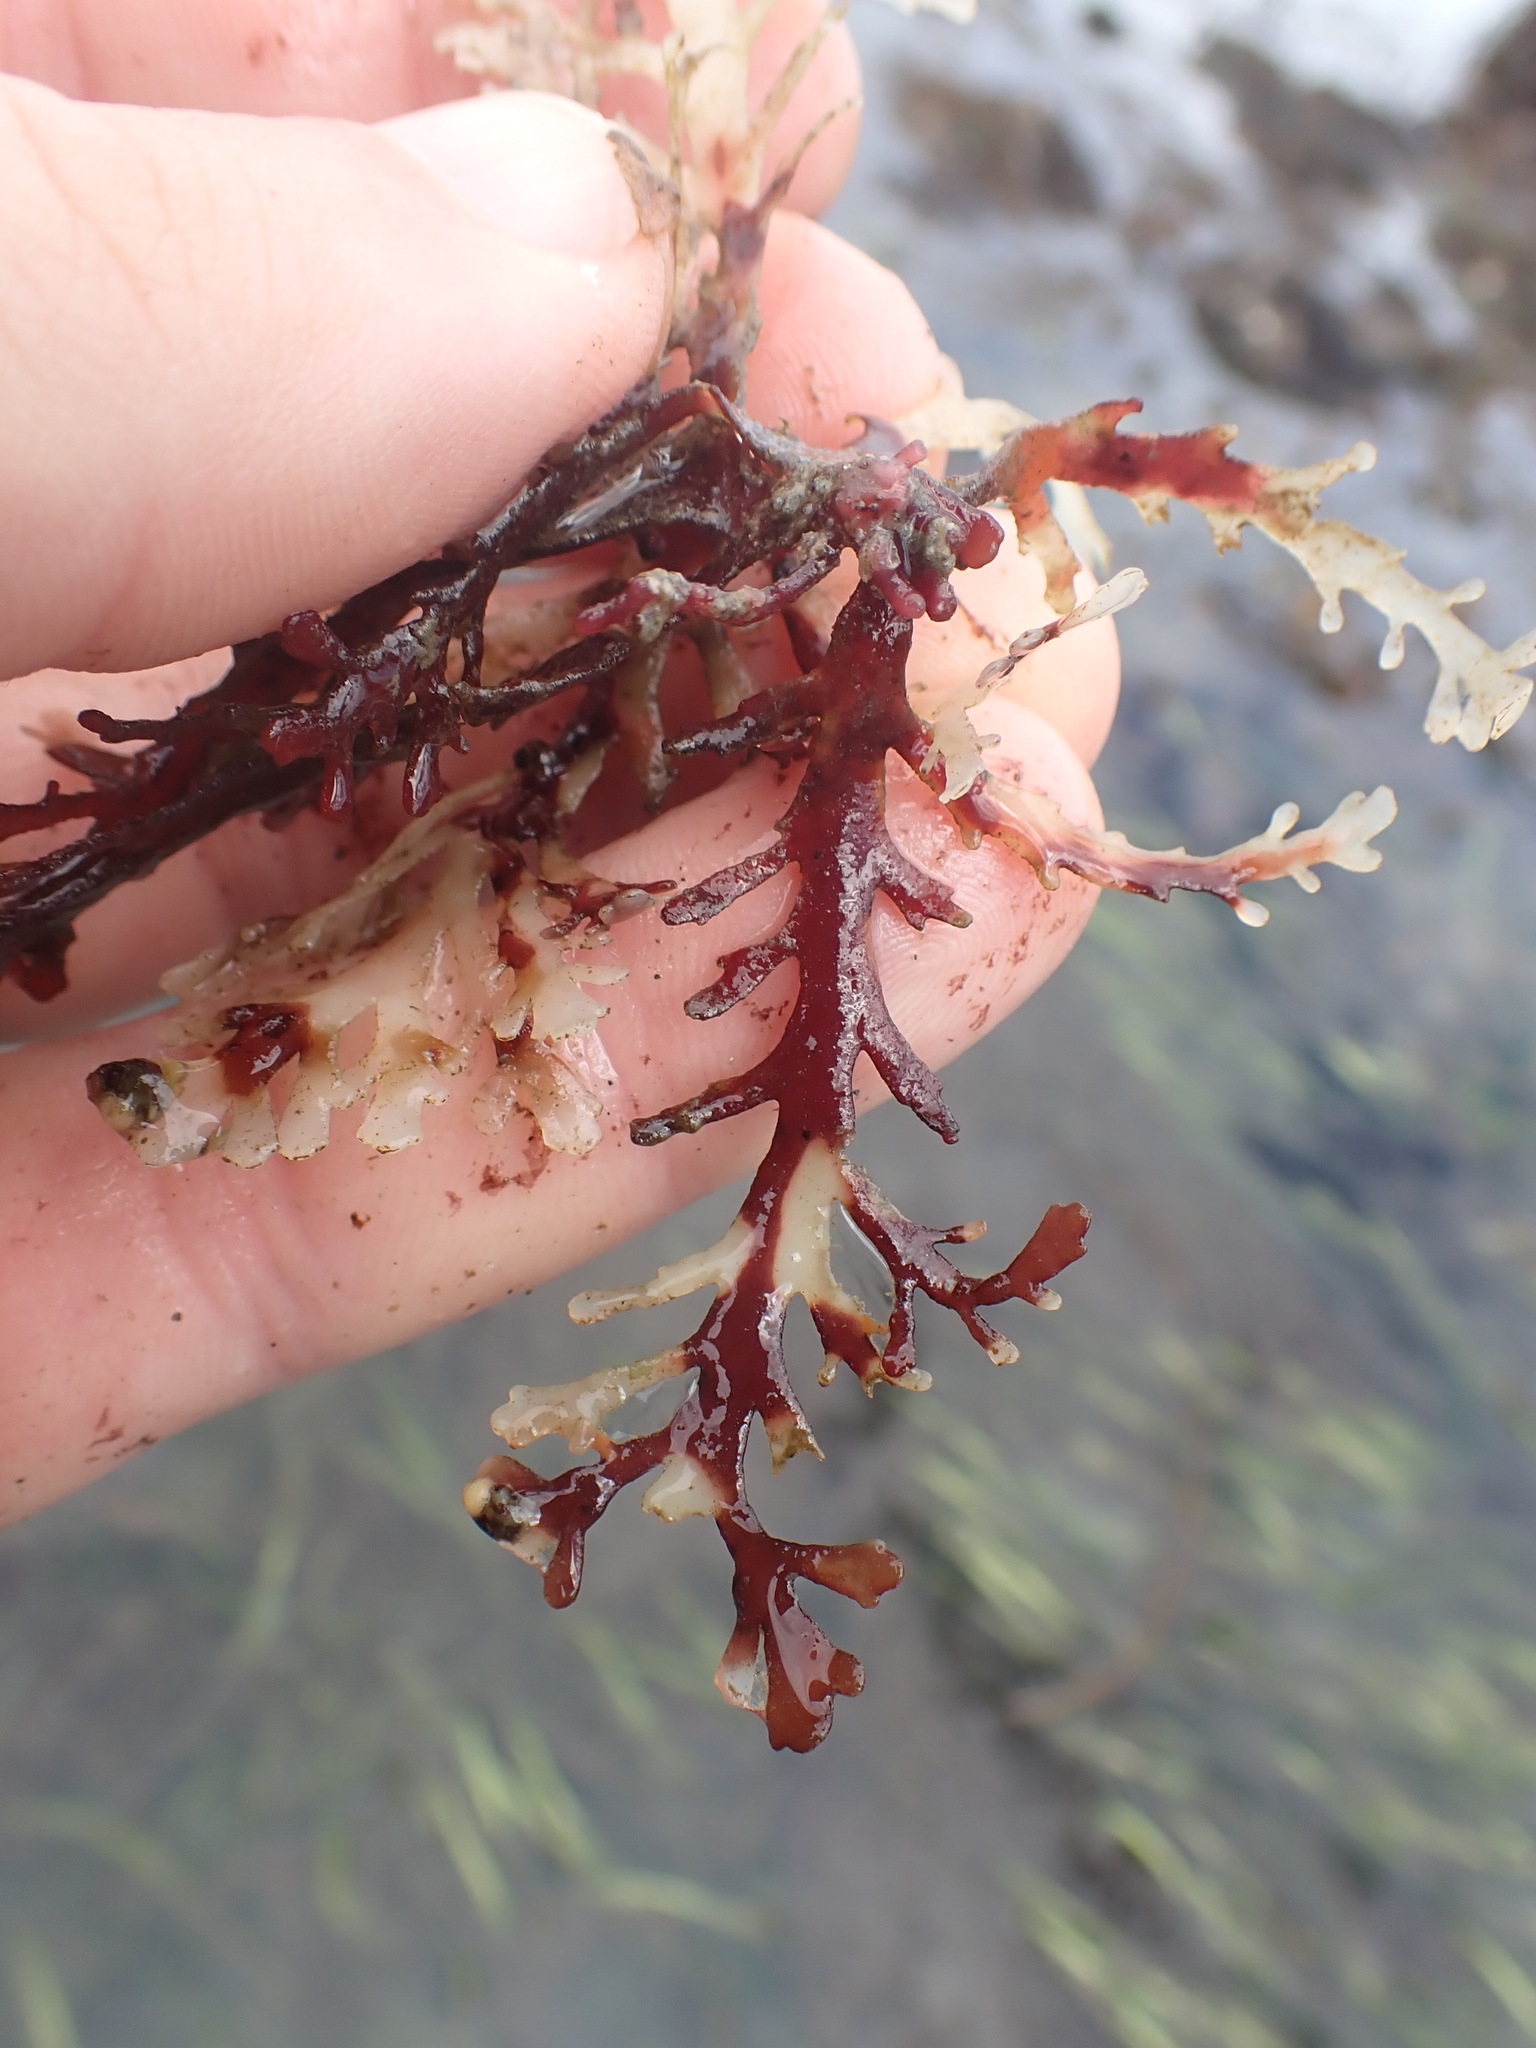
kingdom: Plantae
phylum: Rhodophyta
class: Florideophyceae
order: Ceramiales
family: Rhodomelaceae
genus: Osmundea
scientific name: Osmundea spectabilis
